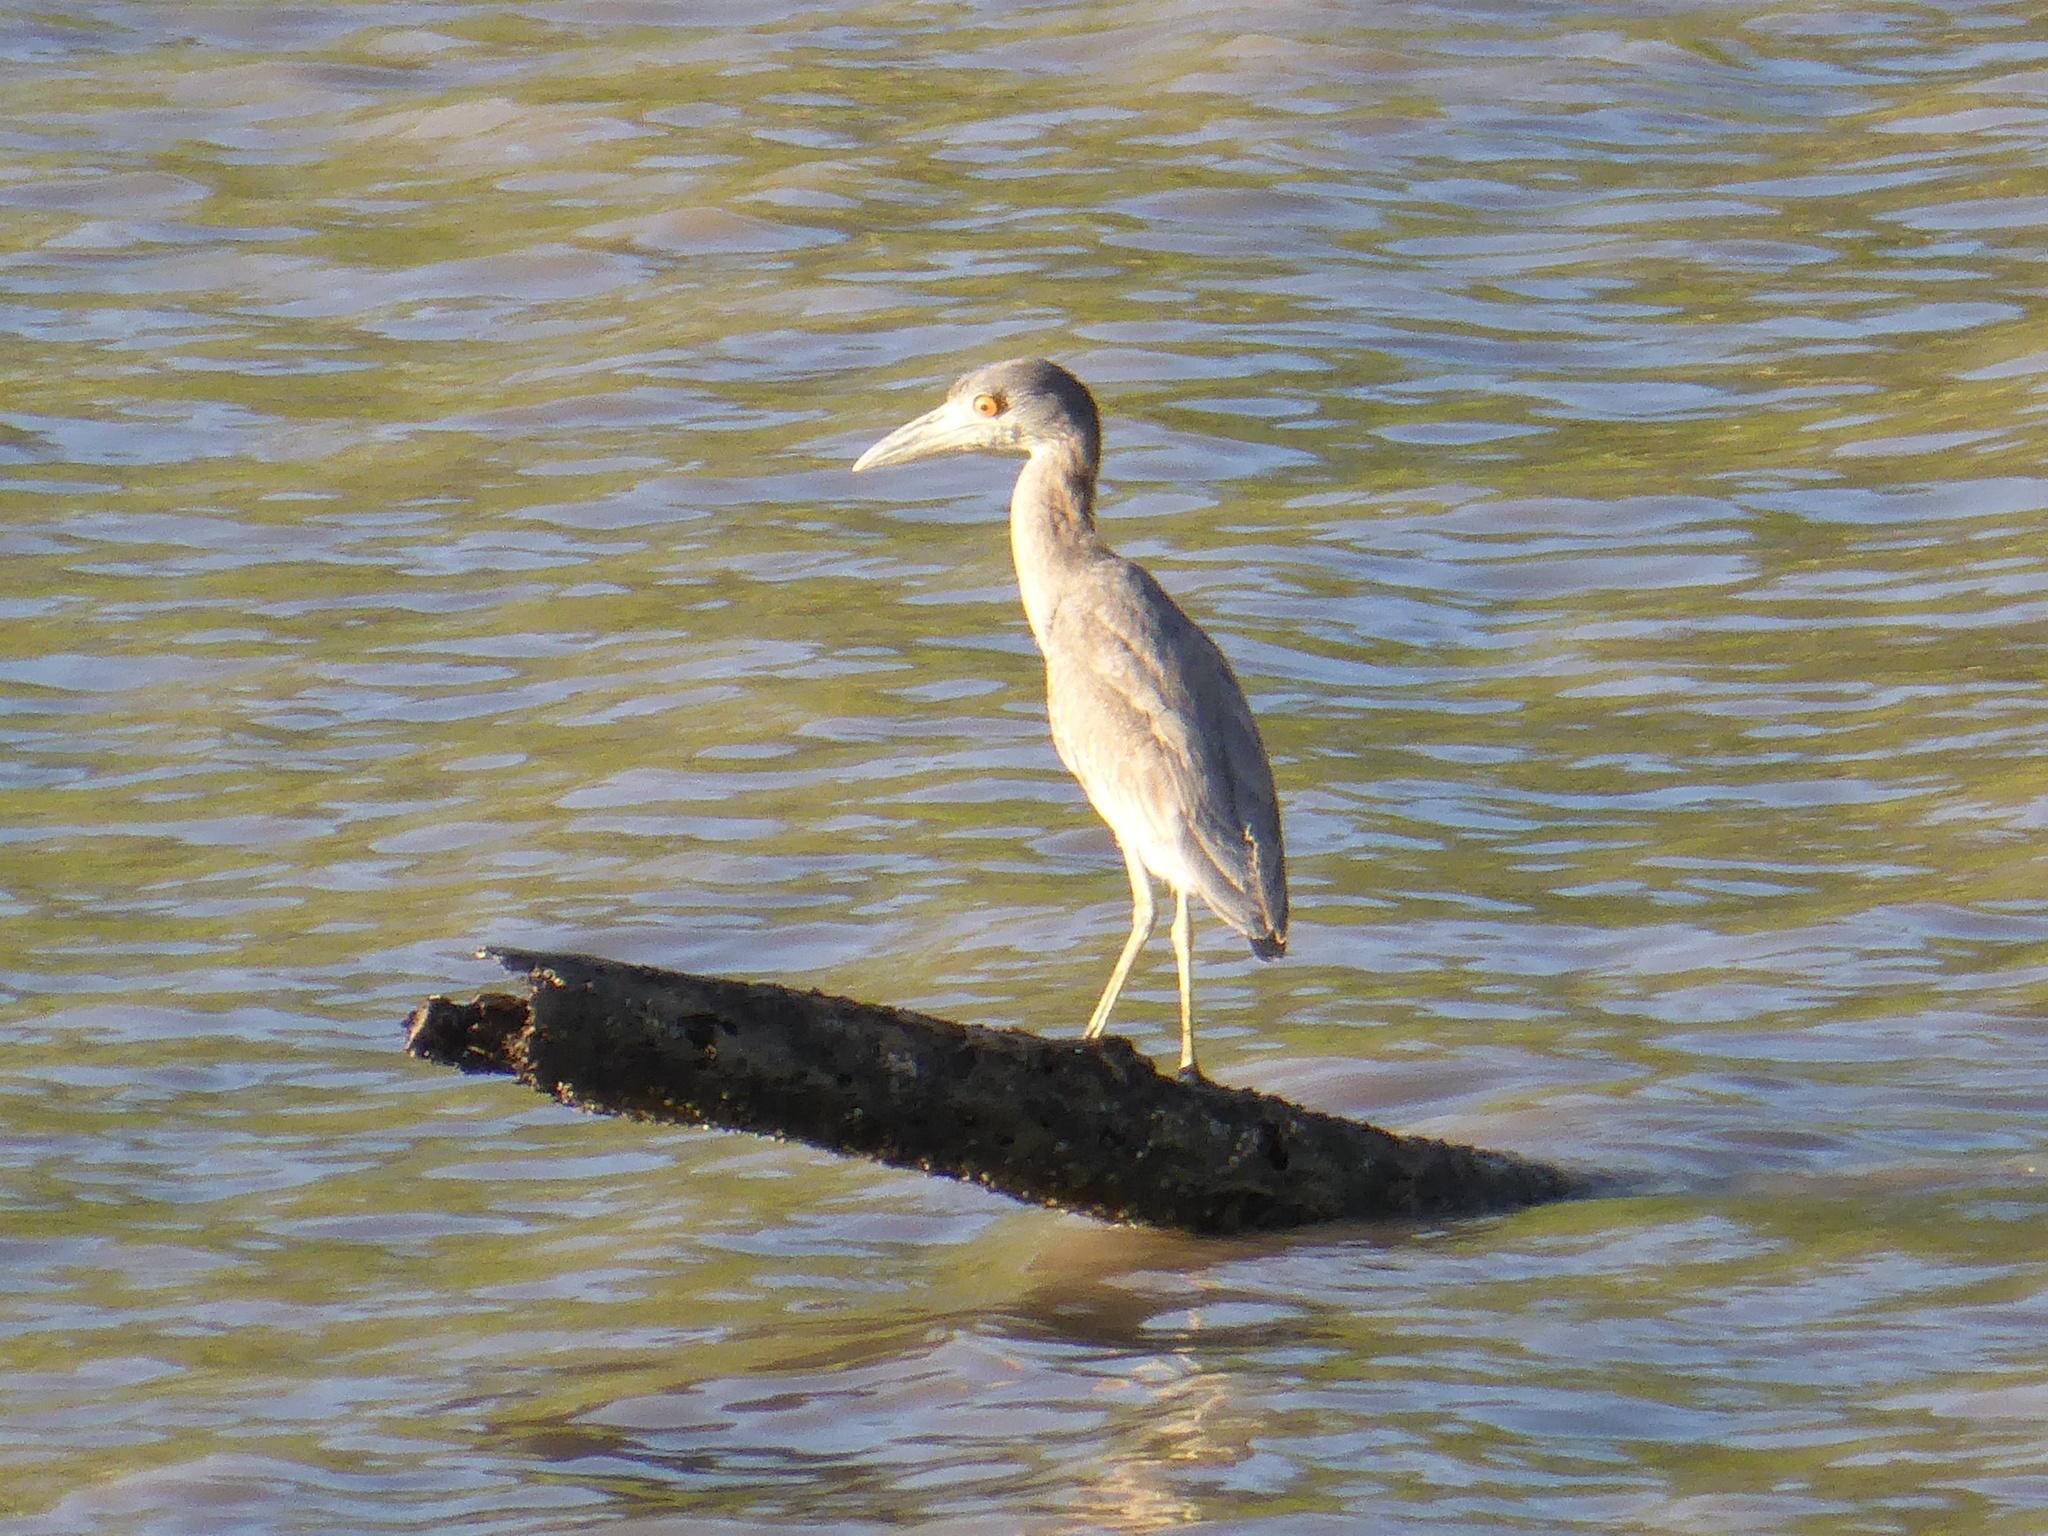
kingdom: Animalia
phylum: Chordata
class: Aves
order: Pelecaniformes
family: Ardeidae
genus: Nyctanassa
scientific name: Nyctanassa violacea
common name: Yellow-crowned night heron
